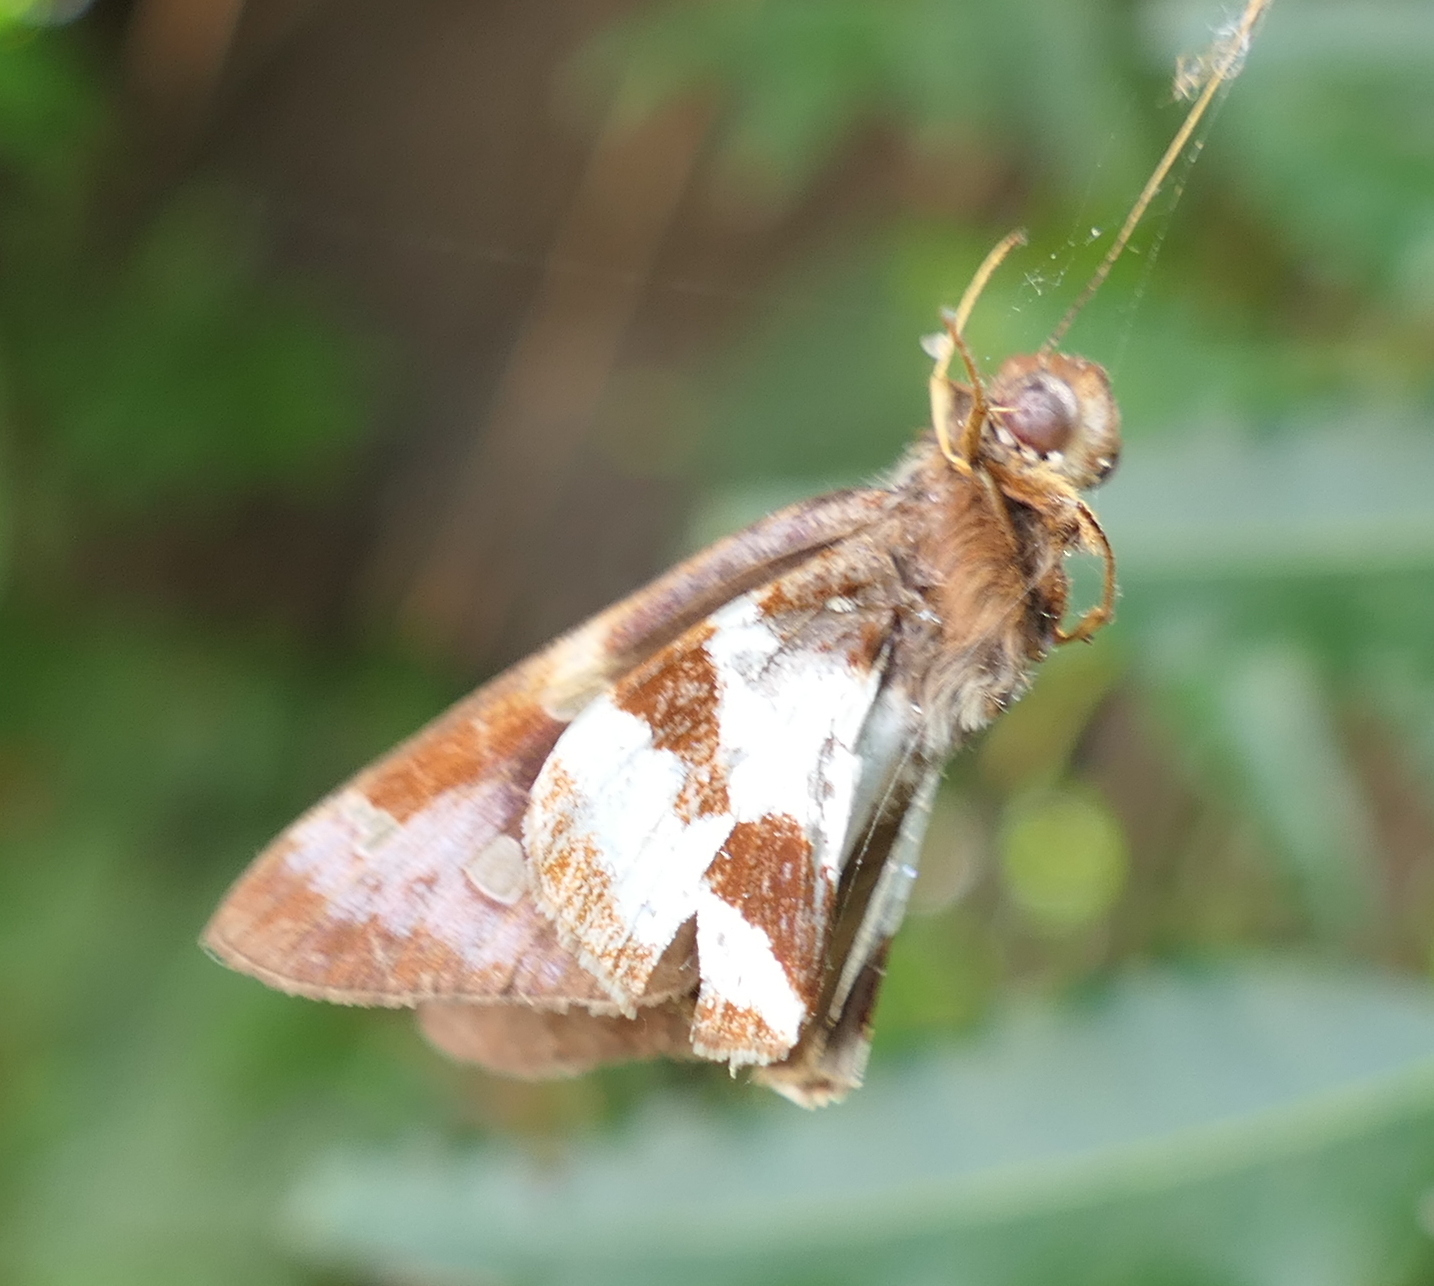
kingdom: Animalia
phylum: Arthropoda
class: Insecta
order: Lepidoptera
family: Hesperiidae
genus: Lycas
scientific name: Lycas argentea
